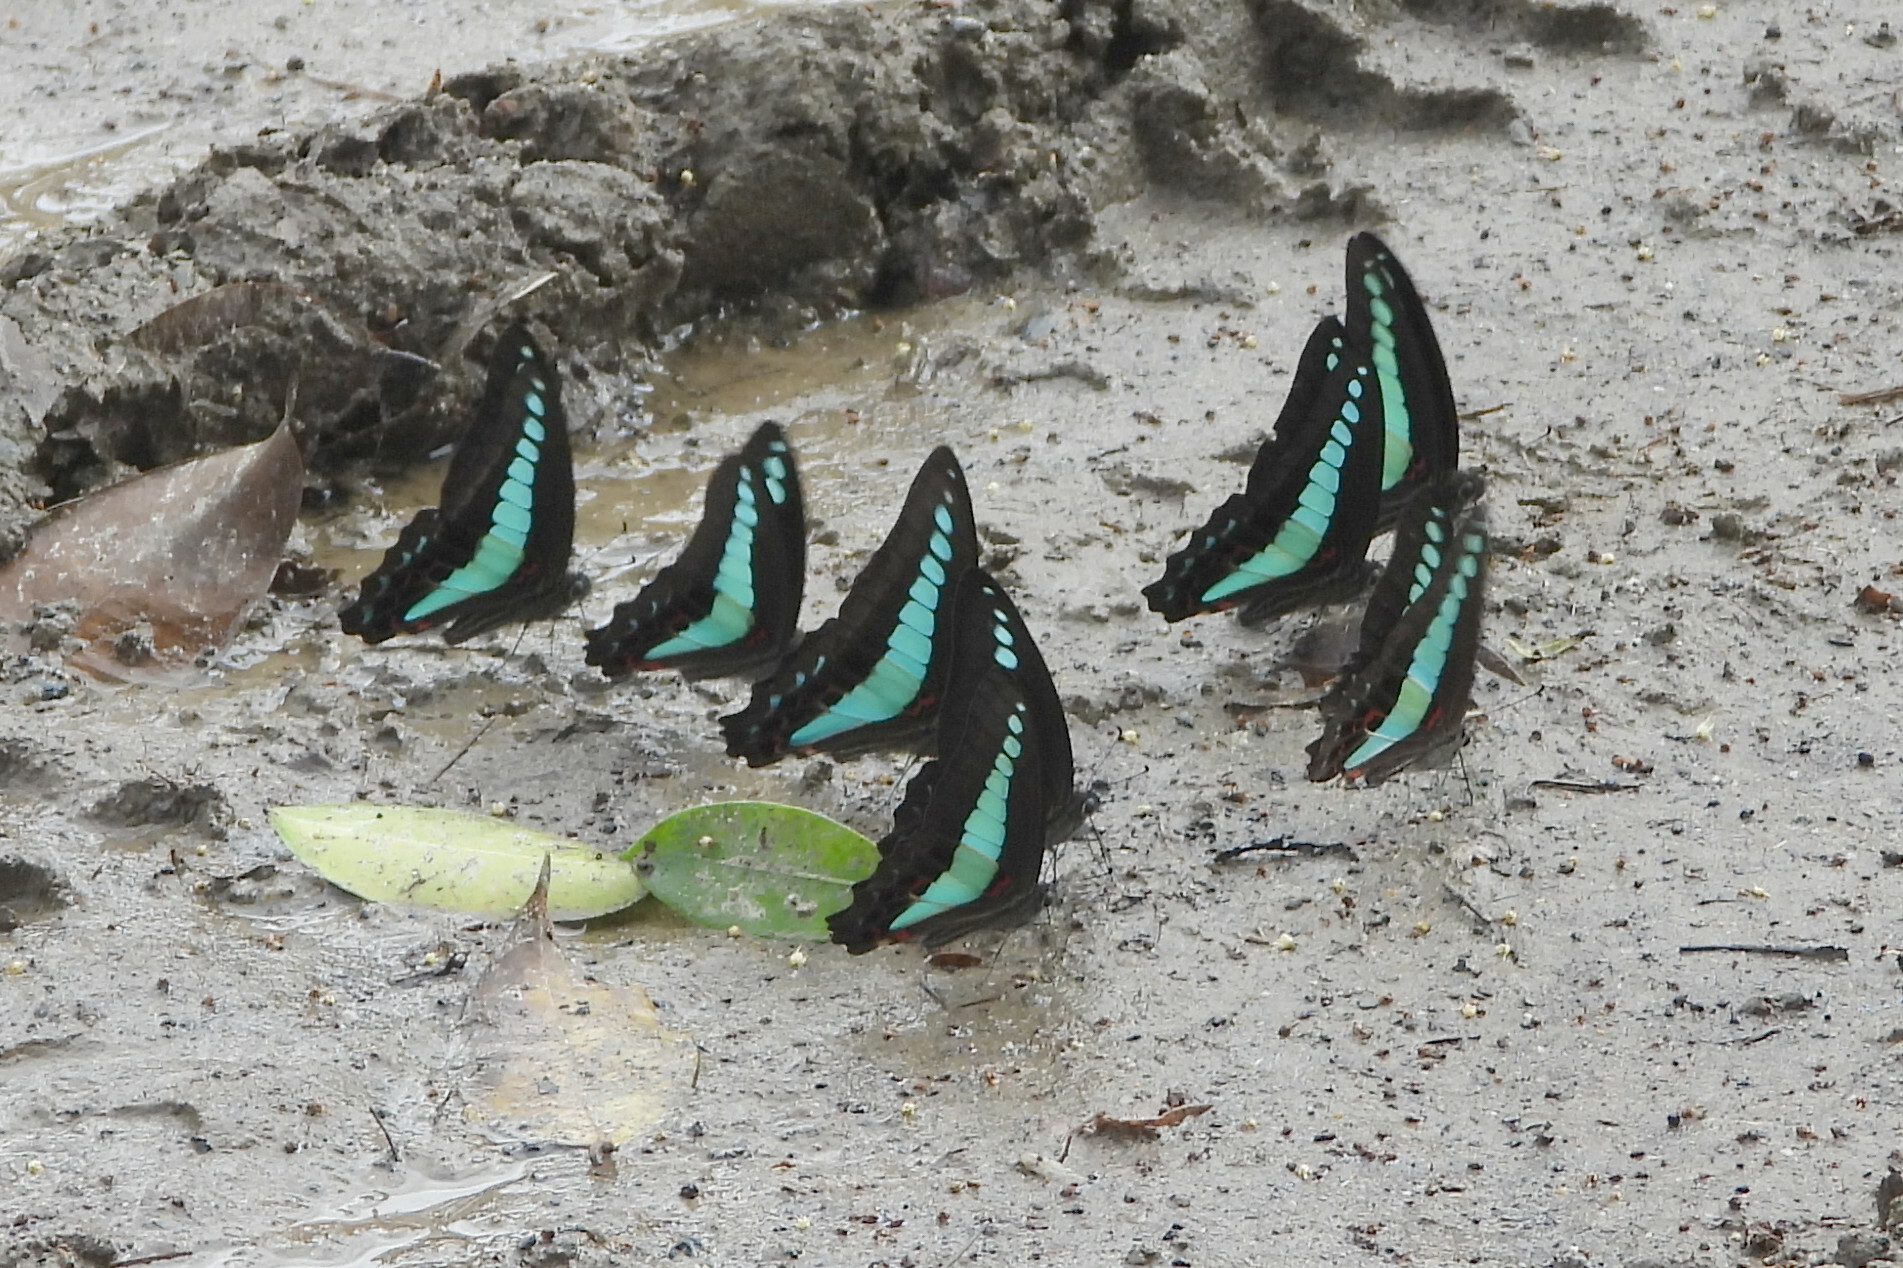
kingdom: Fungi
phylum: Ascomycota
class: Sordariomycetes
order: Microascales
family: Microascaceae
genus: Graphium
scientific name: Graphium sarpedon
